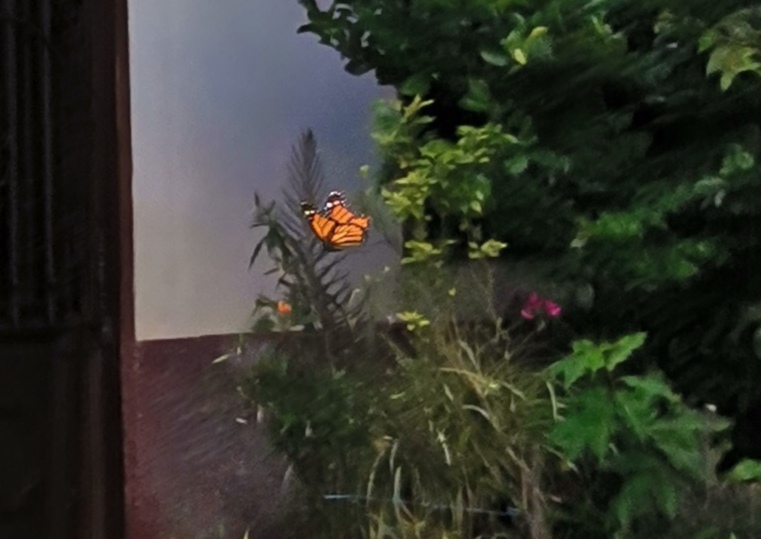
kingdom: Animalia
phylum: Arthropoda
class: Insecta
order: Lepidoptera
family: Nymphalidae
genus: Danaus
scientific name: Danaus plexippus
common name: Monarch
